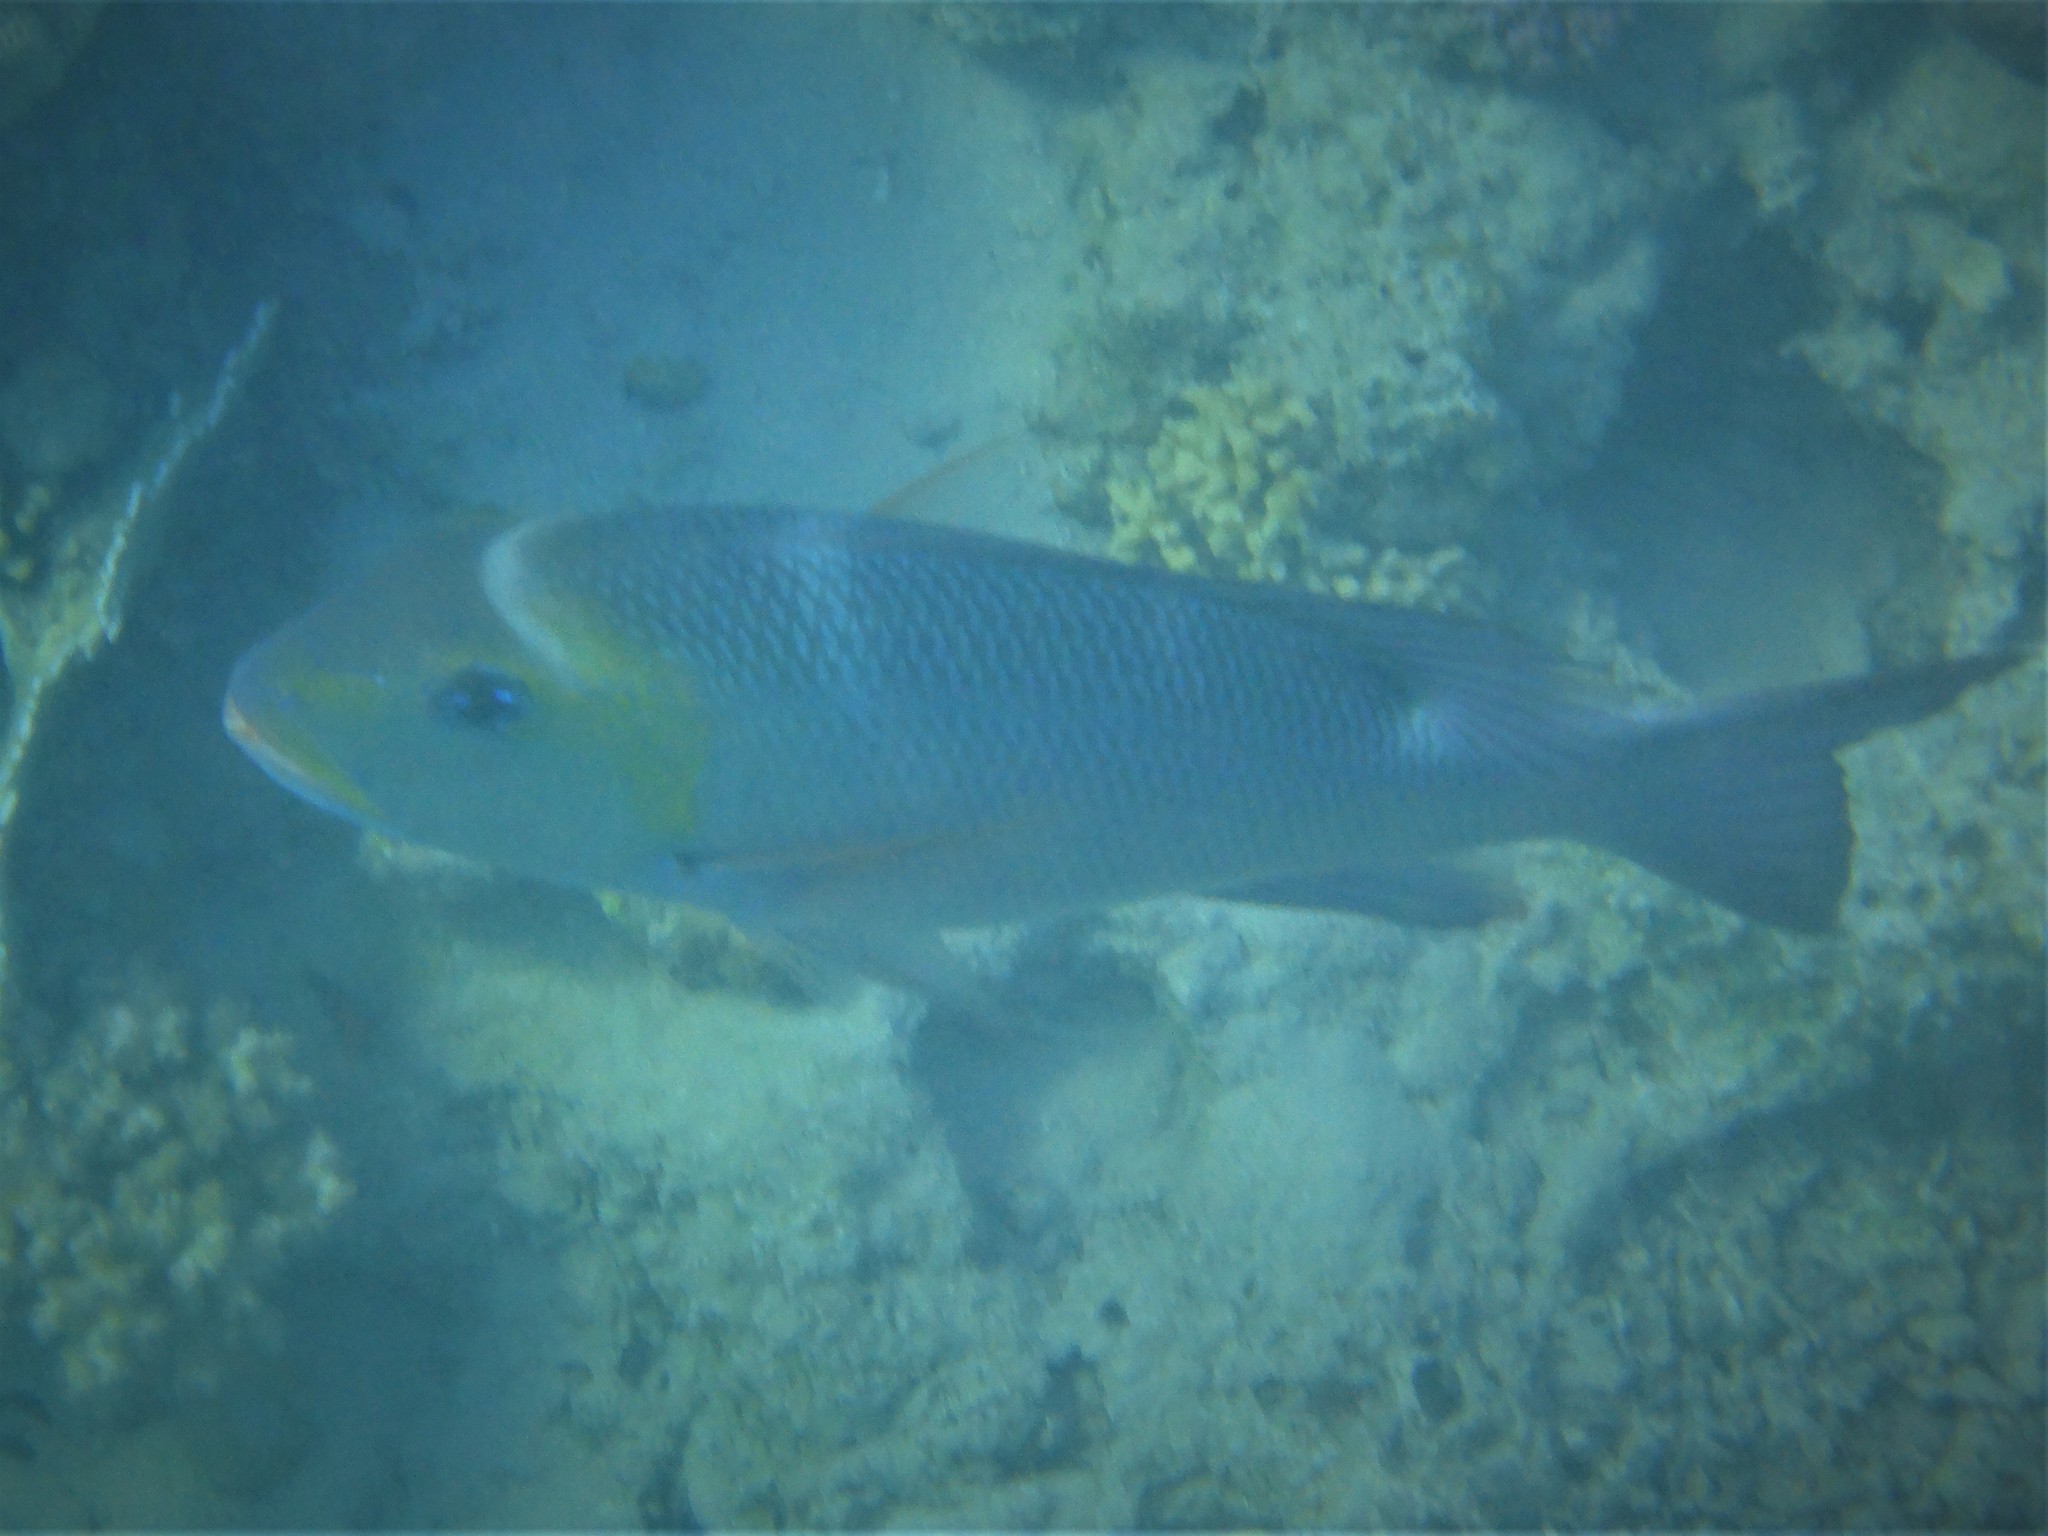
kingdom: Animalia
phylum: Chordata
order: Perciformes
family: Lethrinidae
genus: Monotaxis
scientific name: Monotaxis grandoculis
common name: Bigeye emperor
